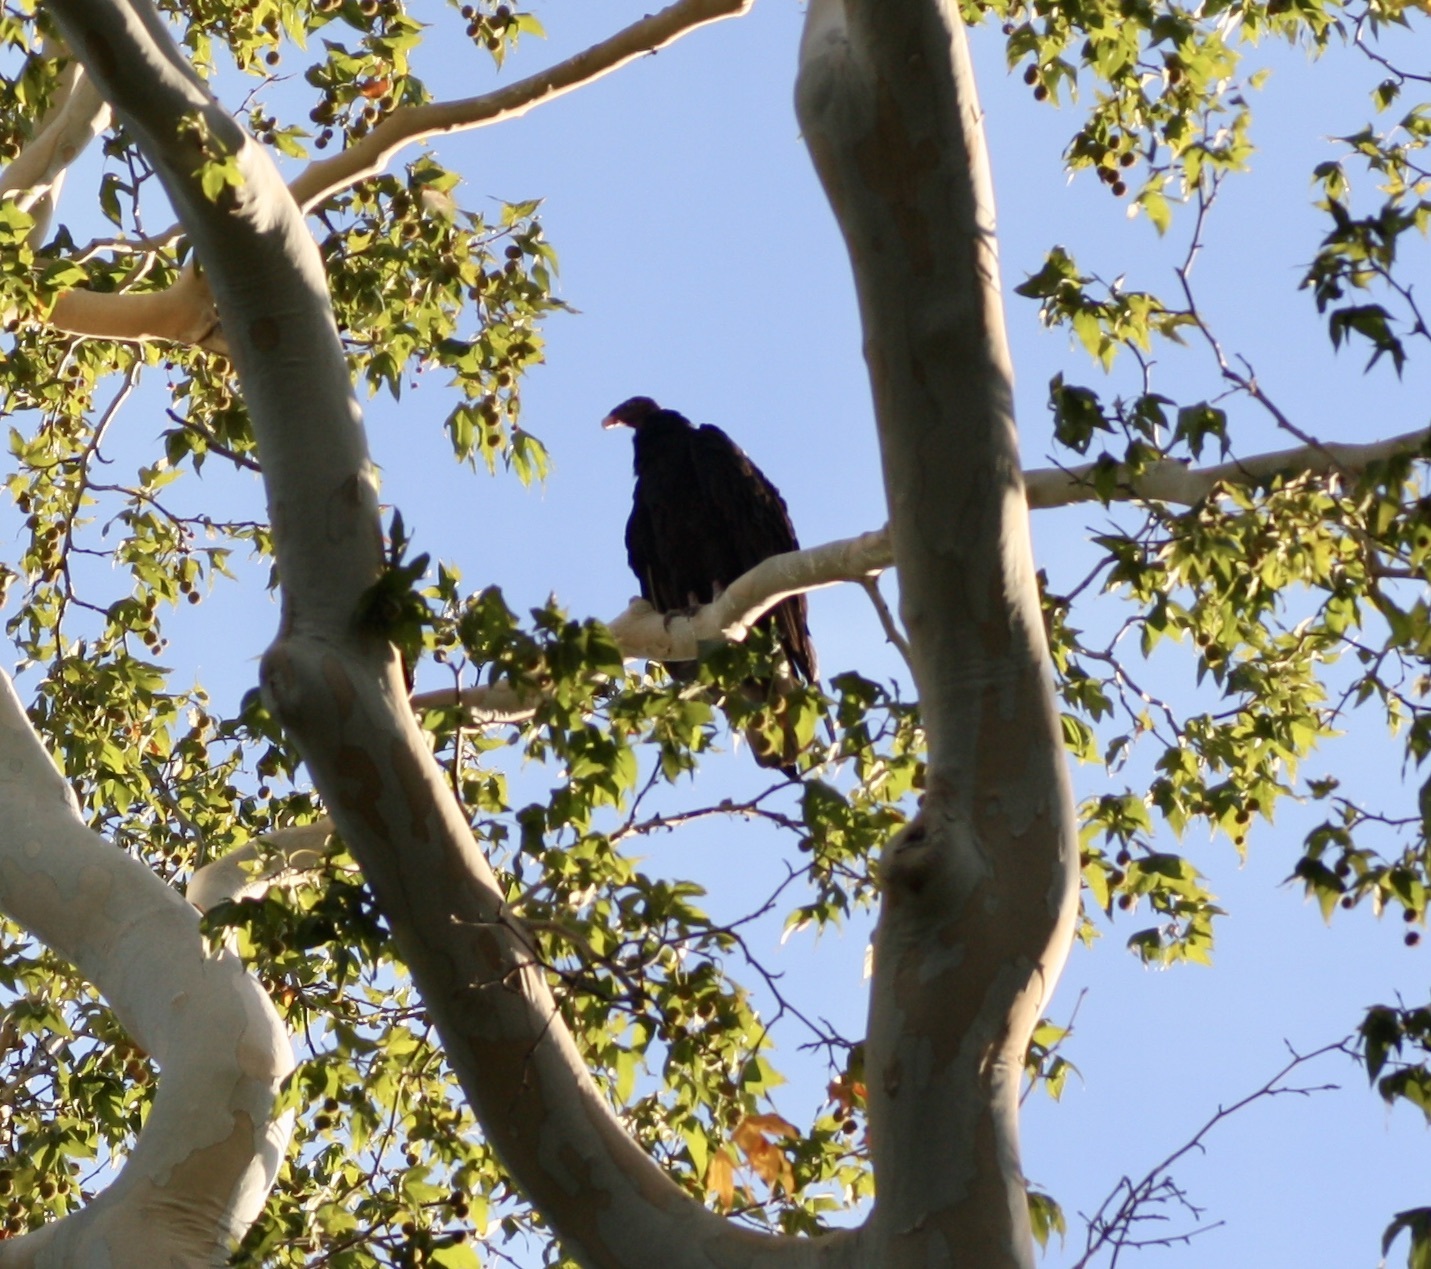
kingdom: Animalia
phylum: Chordata
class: Aves
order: Accipitriformes
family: Cathartidae
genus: Cathartes
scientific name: Cathartes aura
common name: Turkey vulture
